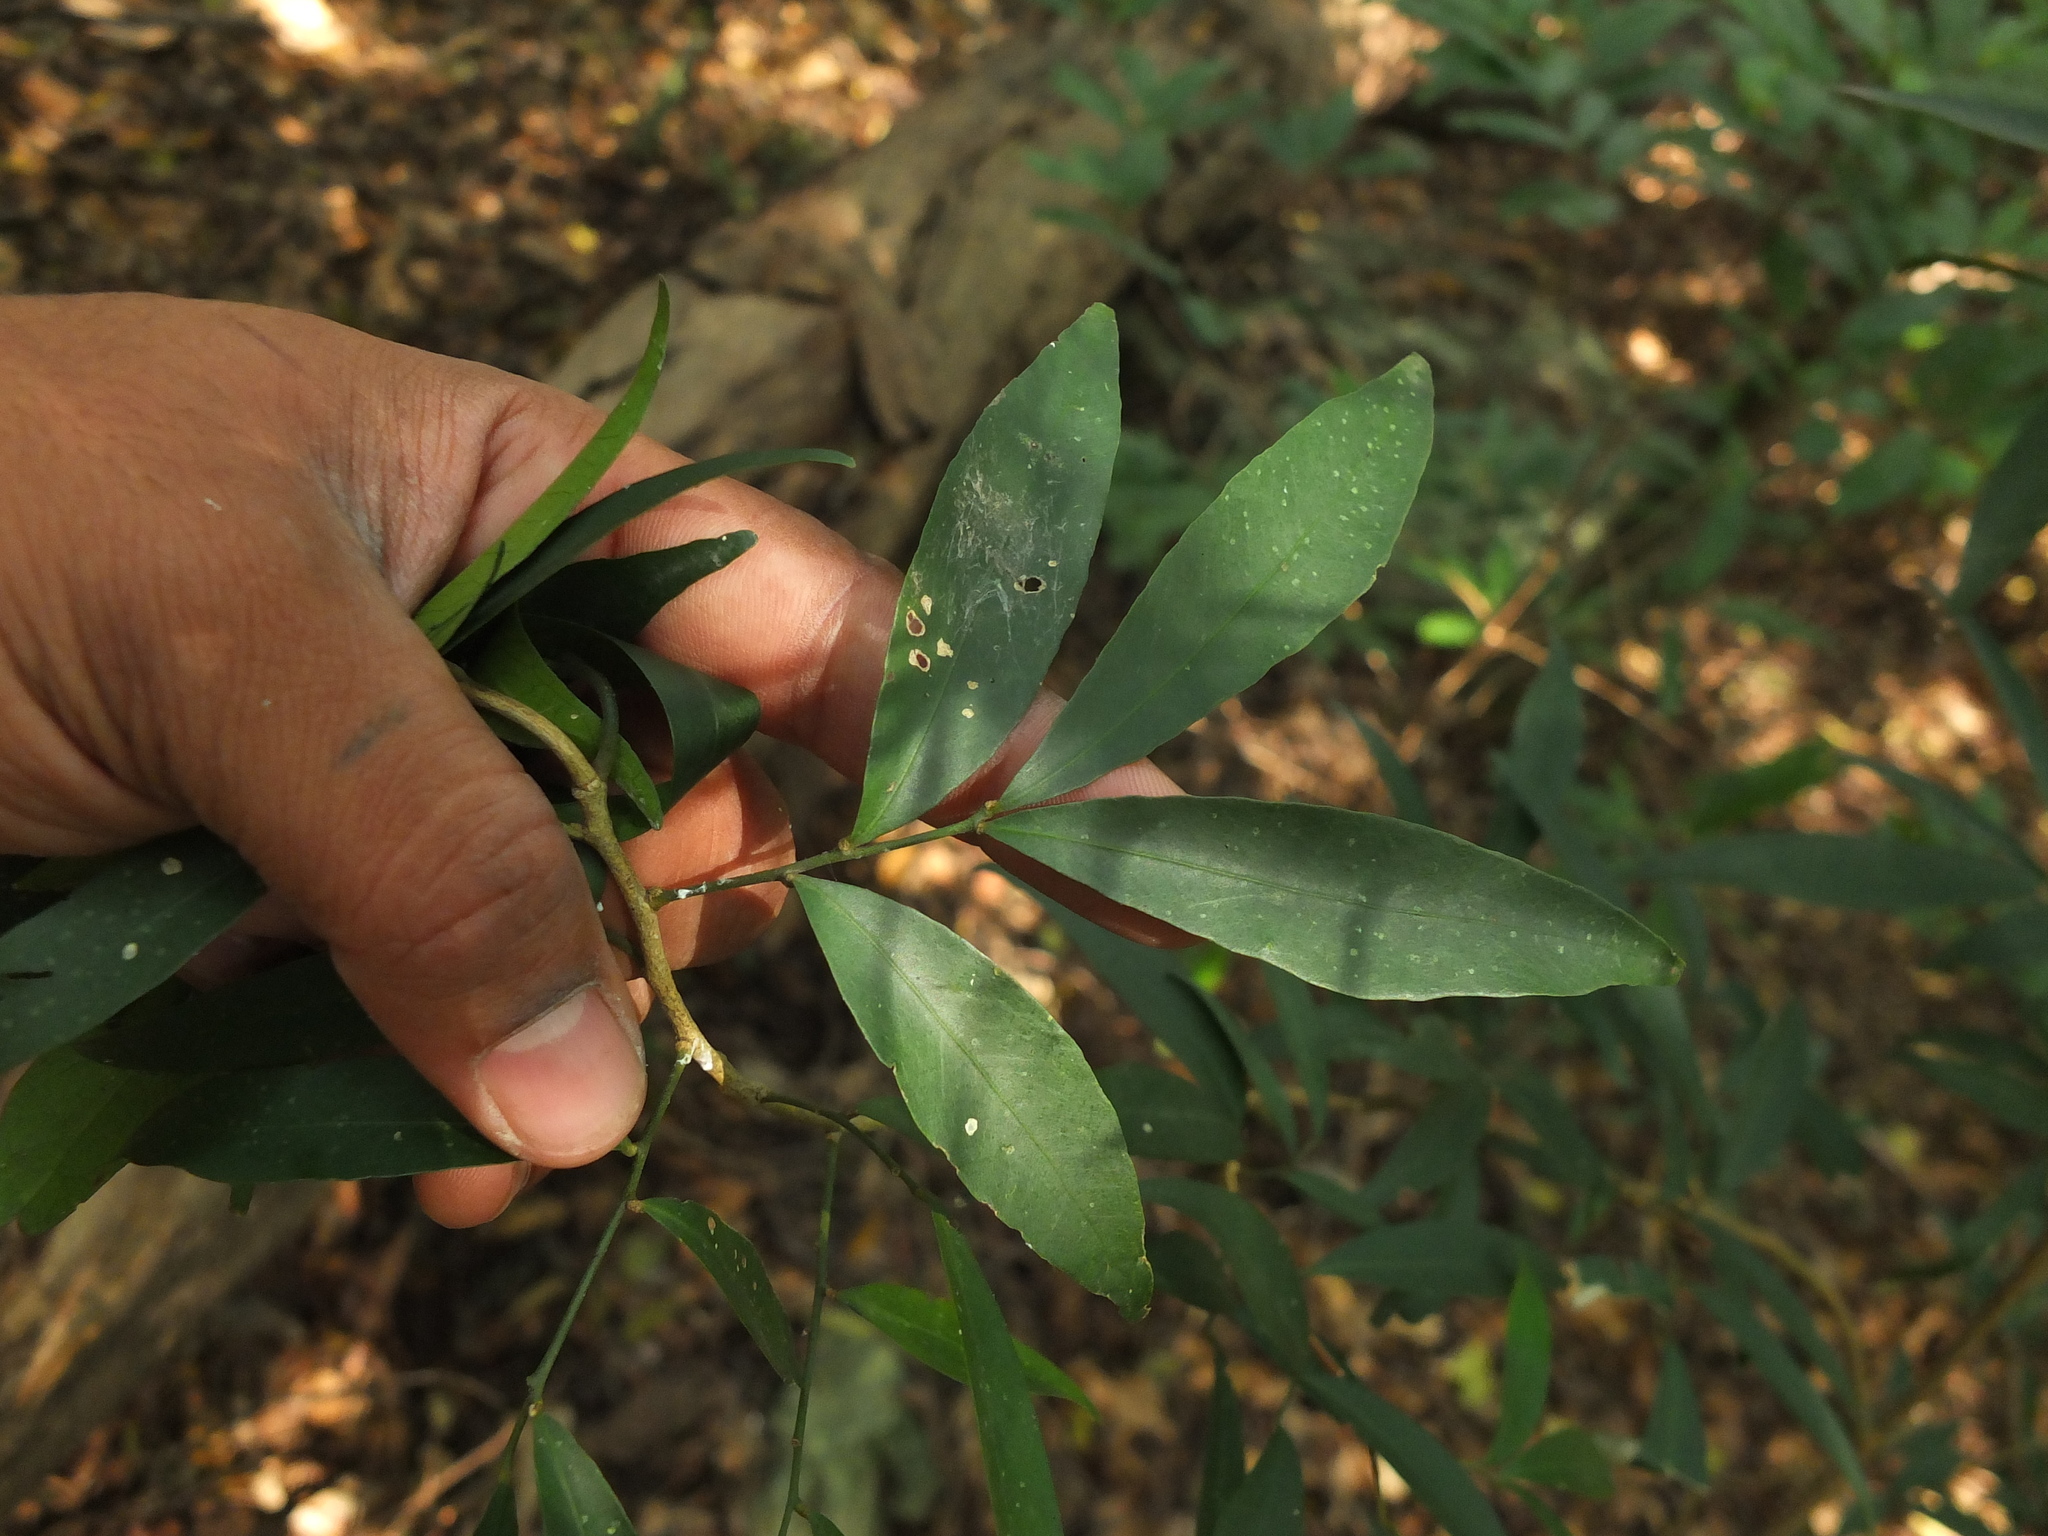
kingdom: Plantae
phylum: Tracheophyta
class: Magnoliopsida
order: Sapindales
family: Rutaceae
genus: Glycosmis
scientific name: Glycosmis pentaphylla
